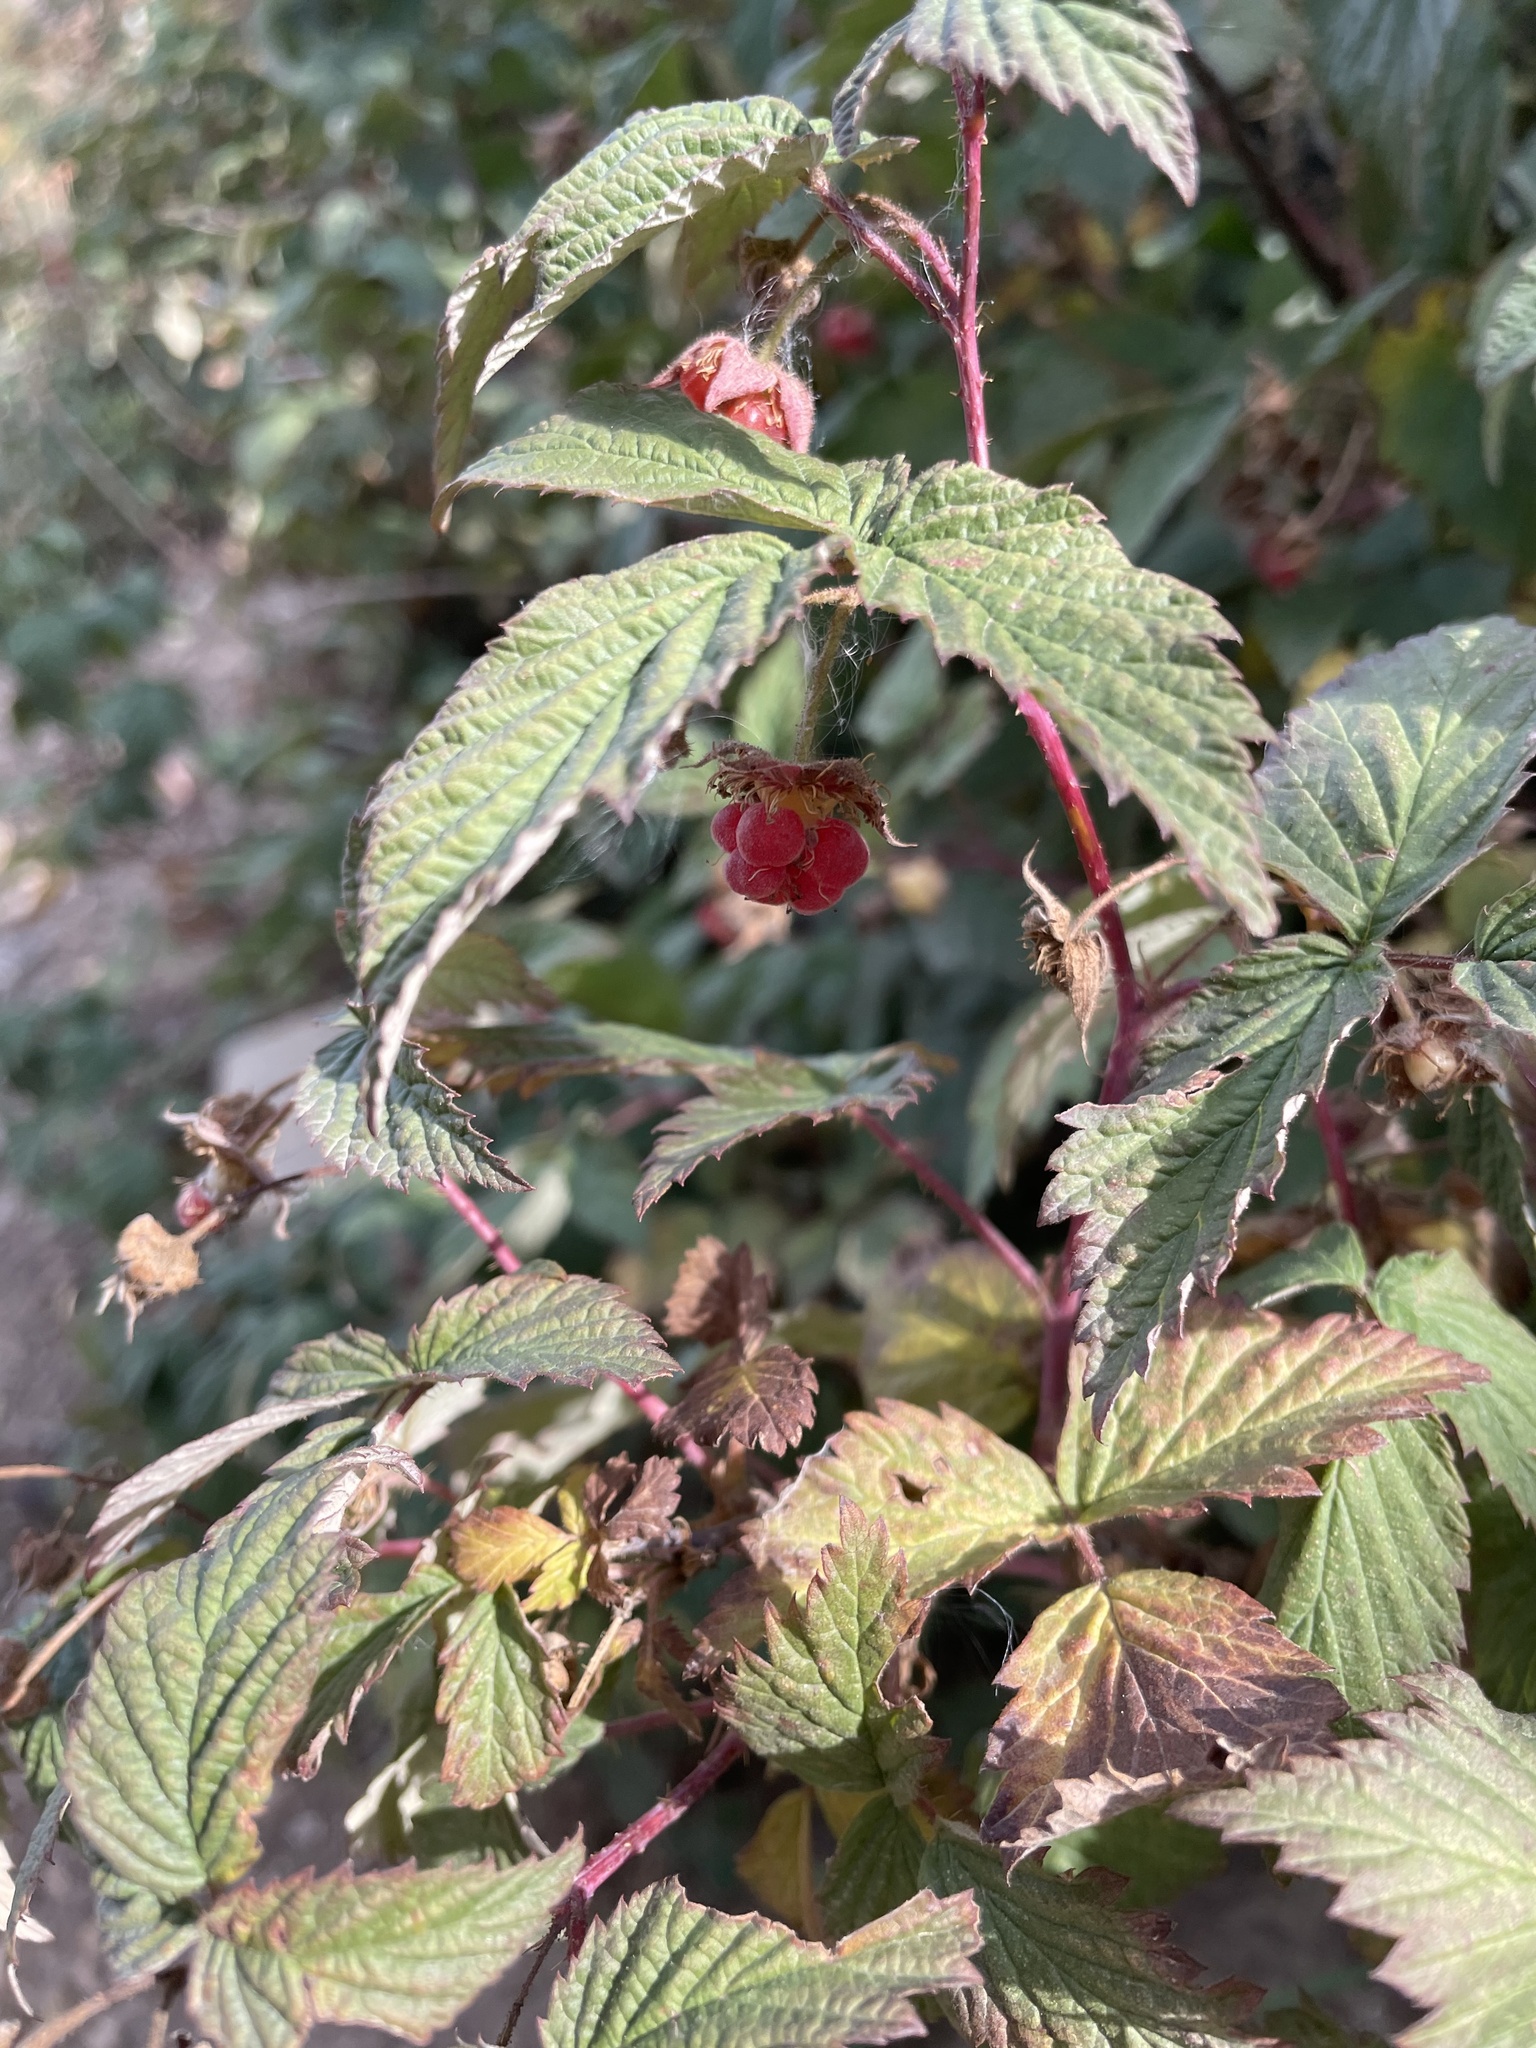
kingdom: Plantae
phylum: Tracheophyta
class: Magnoliopsida
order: Rosales
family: Rosaceae
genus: Rubus
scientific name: Rubus idaeus
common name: Raspberry
